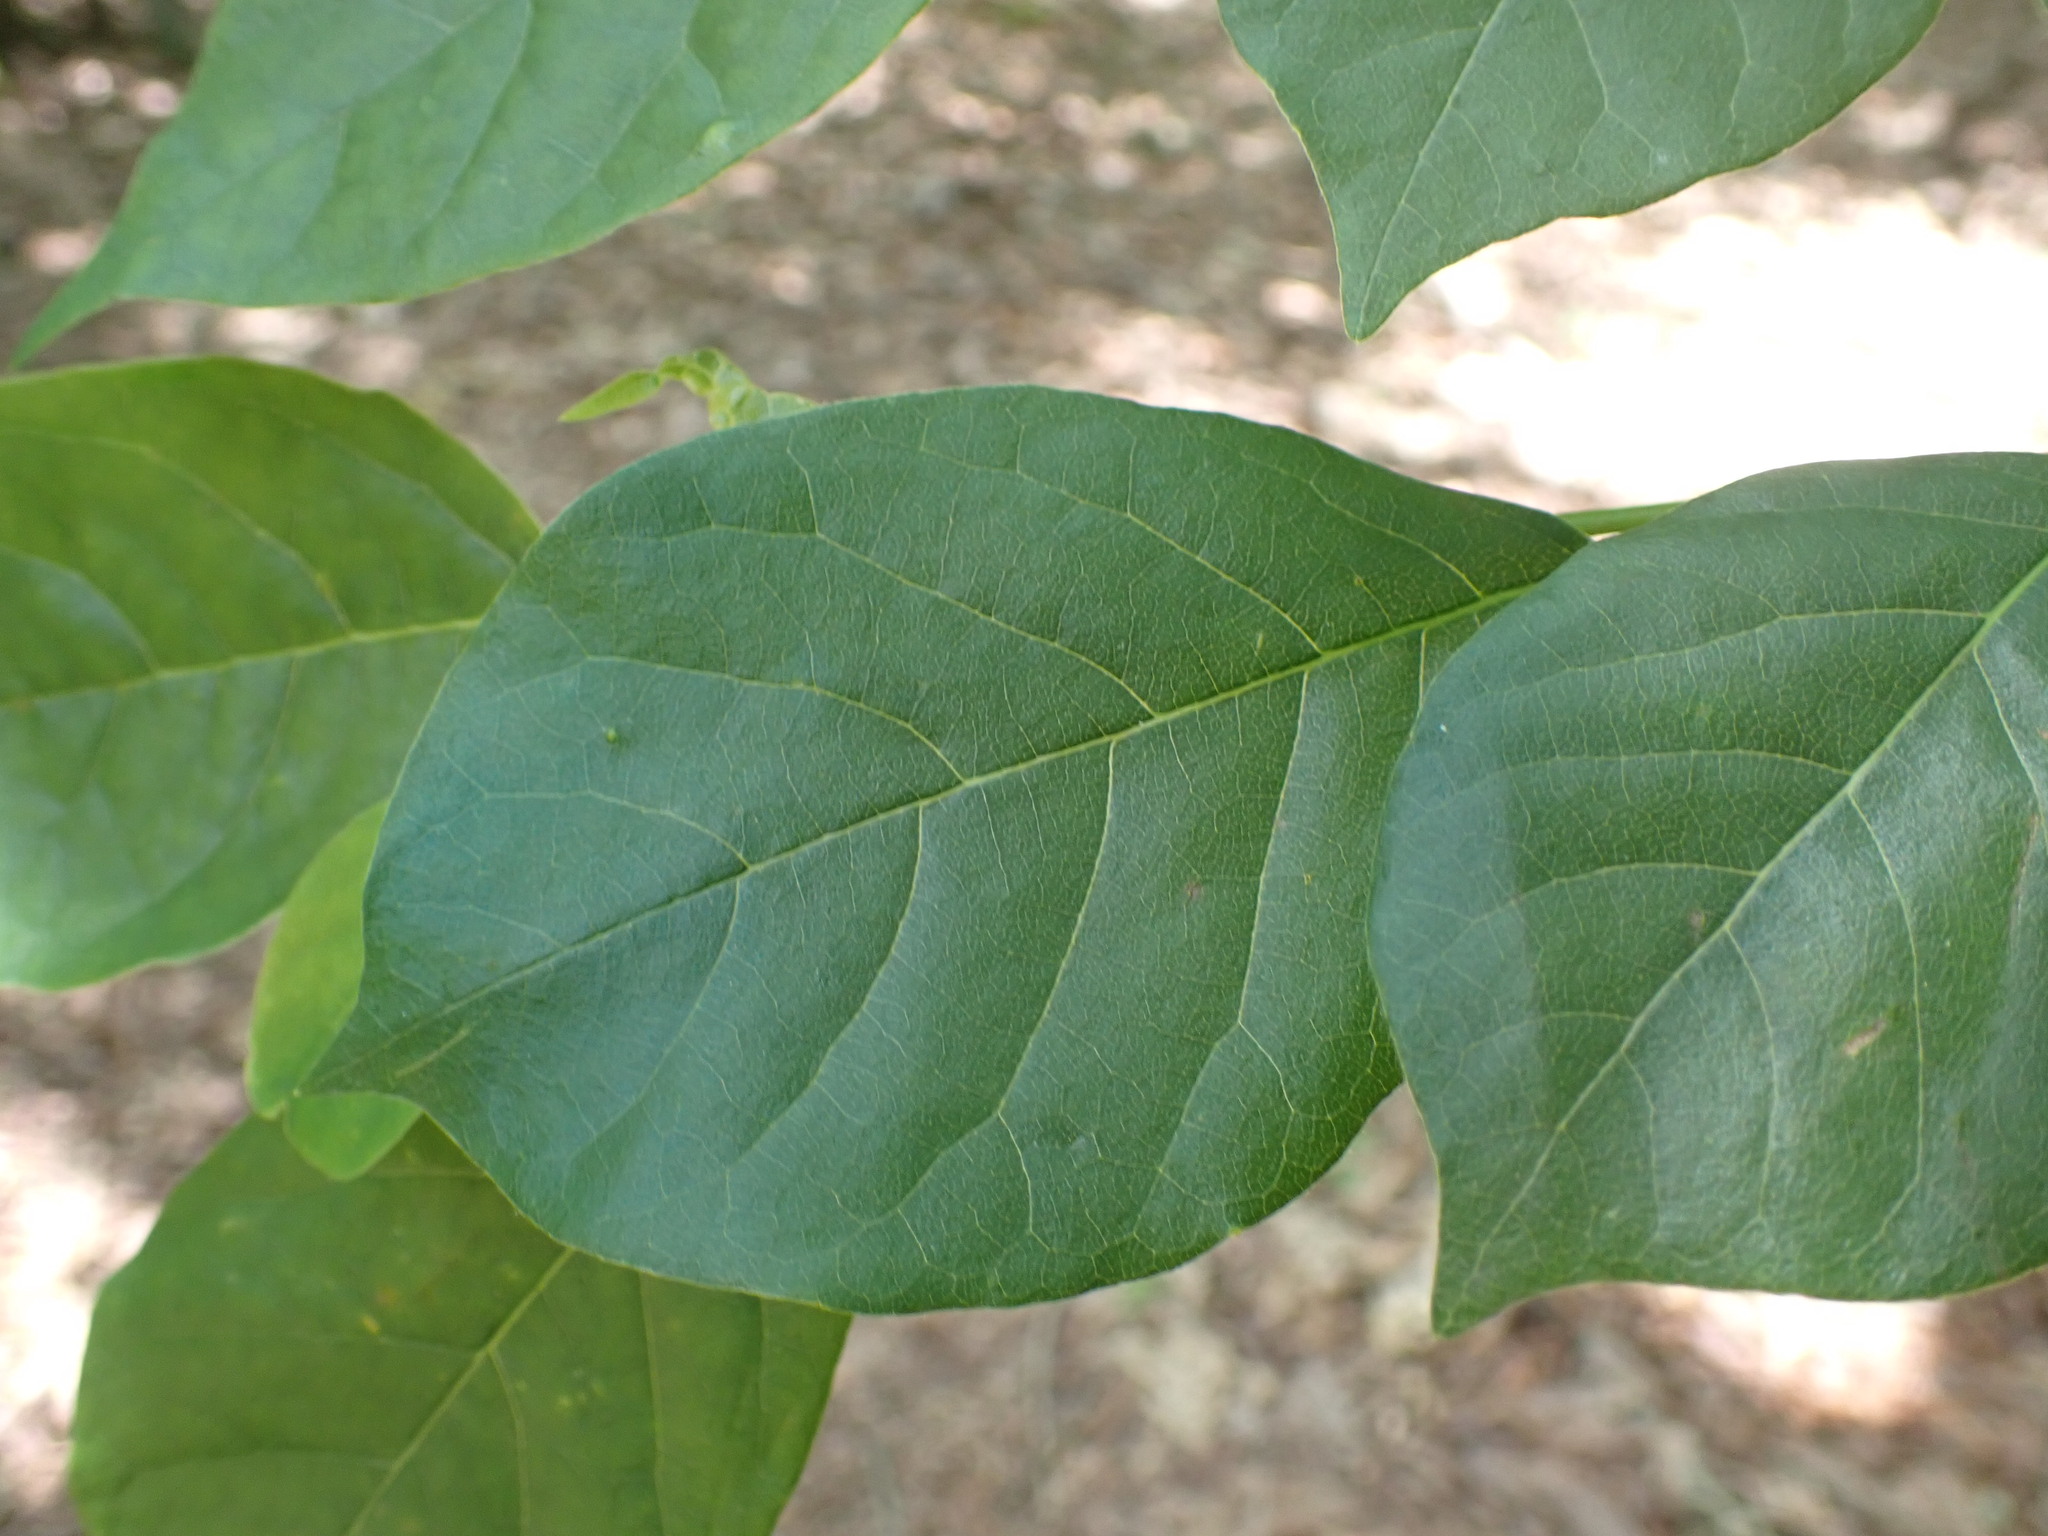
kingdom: Plantae
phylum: Tracheophyta
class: Magnoliopsida
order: Cornales
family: Nyssaceae
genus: Nyssa
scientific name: Nyssa sylvatica
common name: Black tupelo
